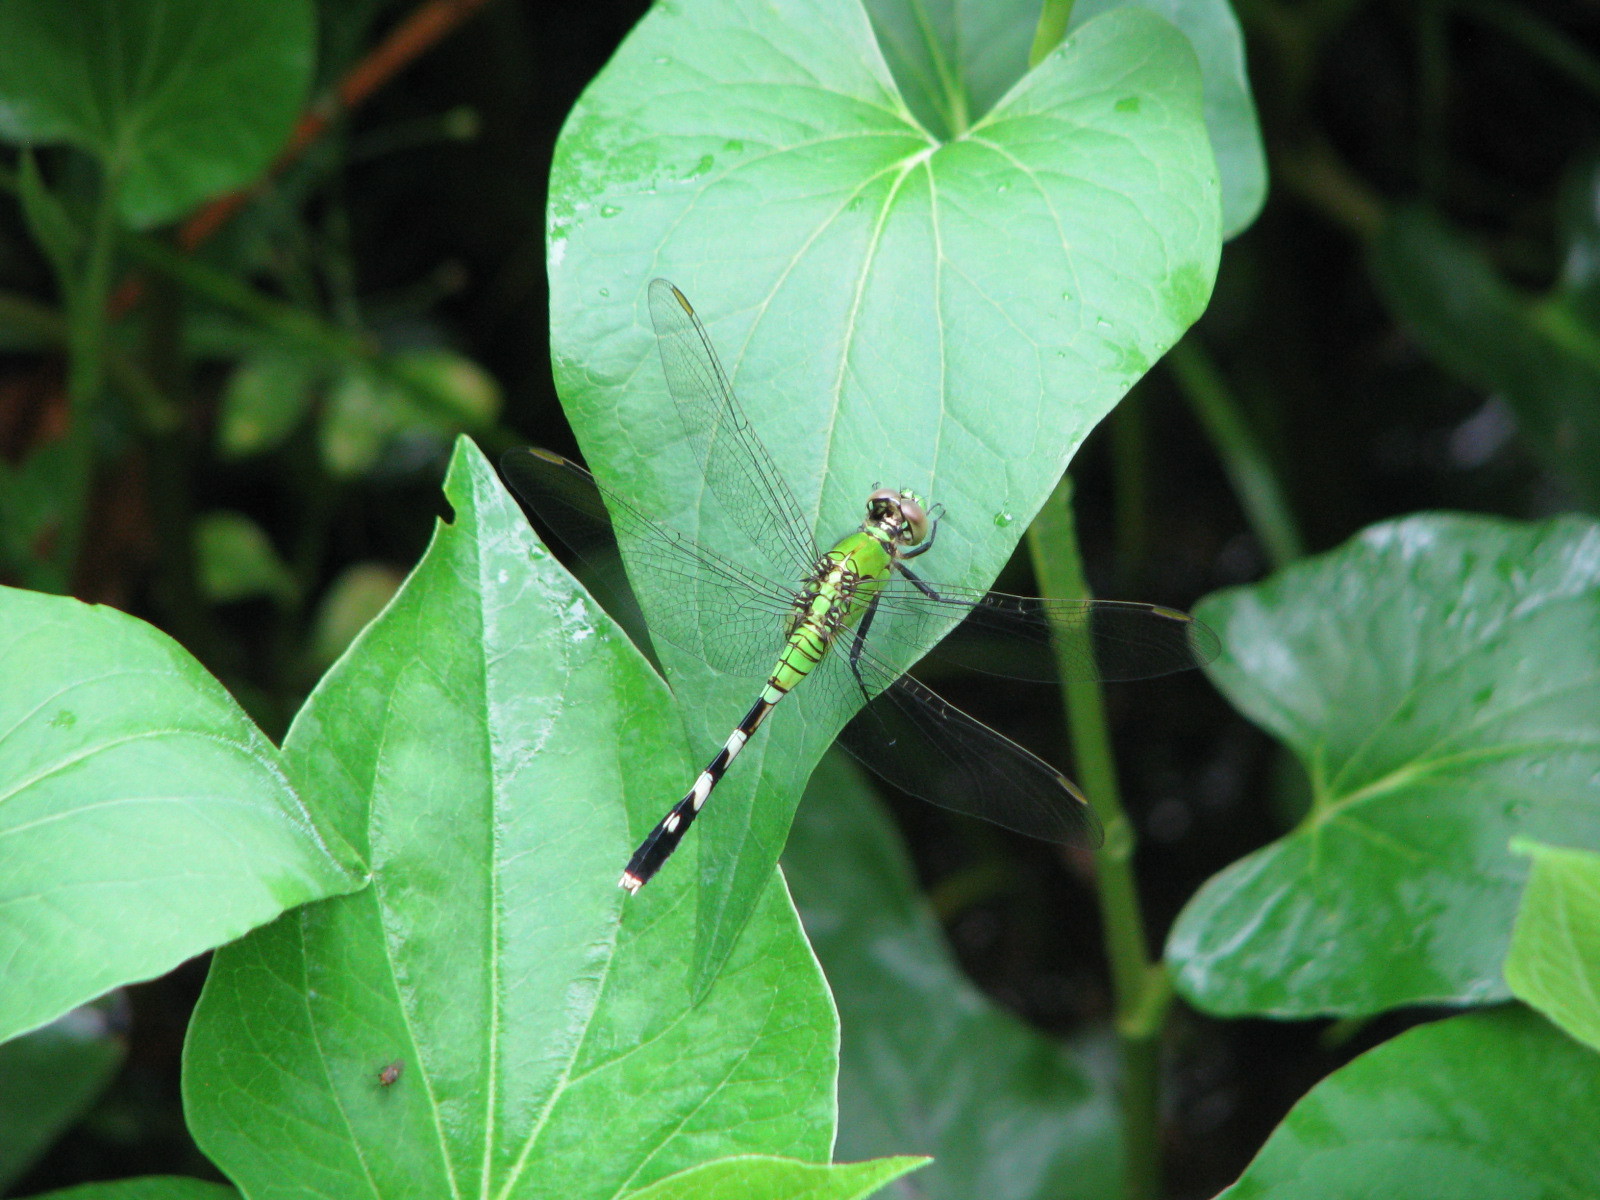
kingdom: Animalia
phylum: Arthropoda
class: Insecta
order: Odonata
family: Libellulidae
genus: Erythemis
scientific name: Erythemis simplicicollis
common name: Eastern pondhawk
